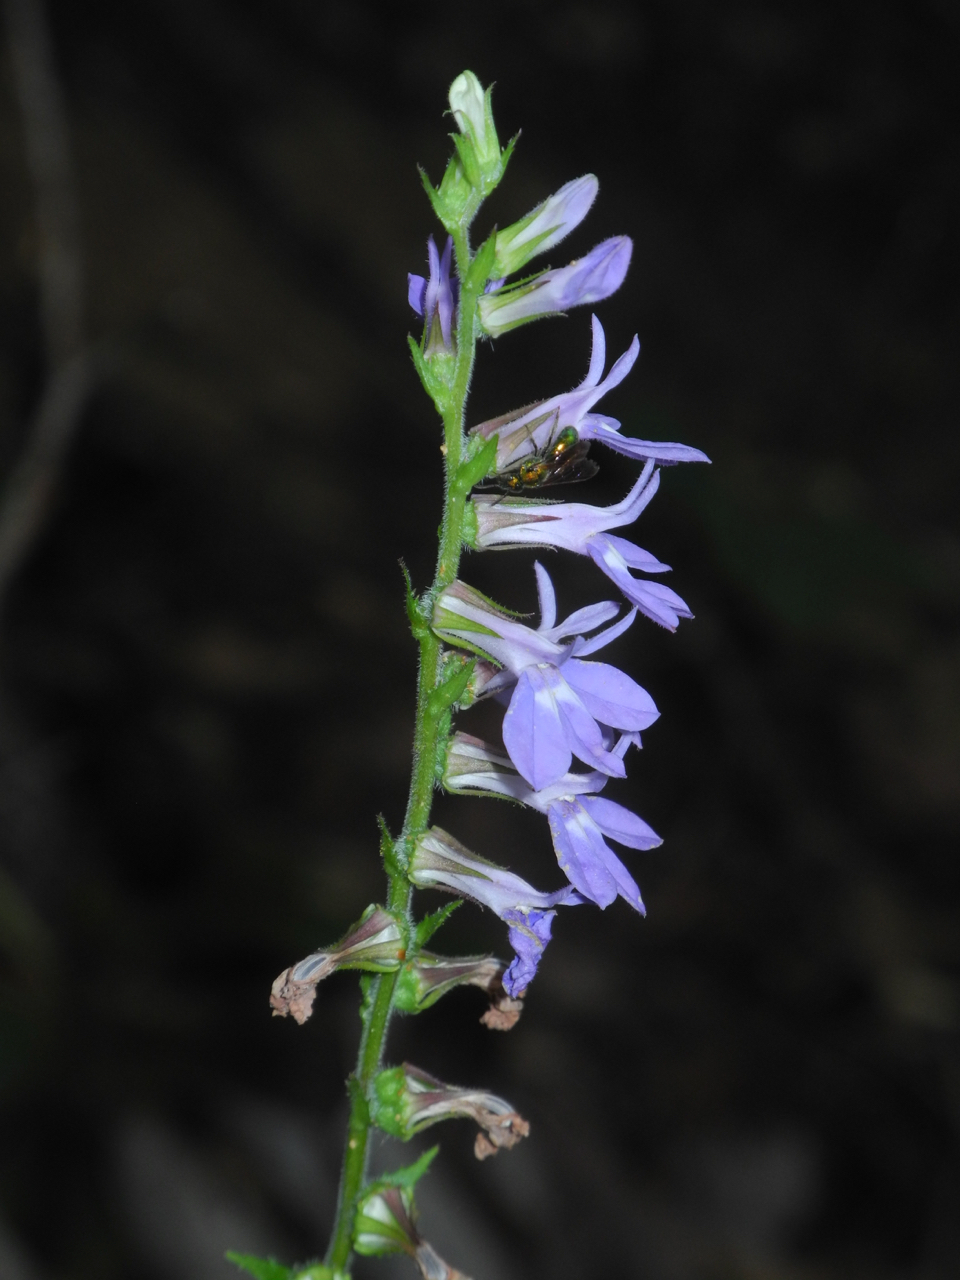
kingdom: Plantae
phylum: Tracheophyta
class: Magnoliopsida
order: Asterales
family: Campanulaceae
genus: Lobelia
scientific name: Lobelia puberula
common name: Purple dewdrop
